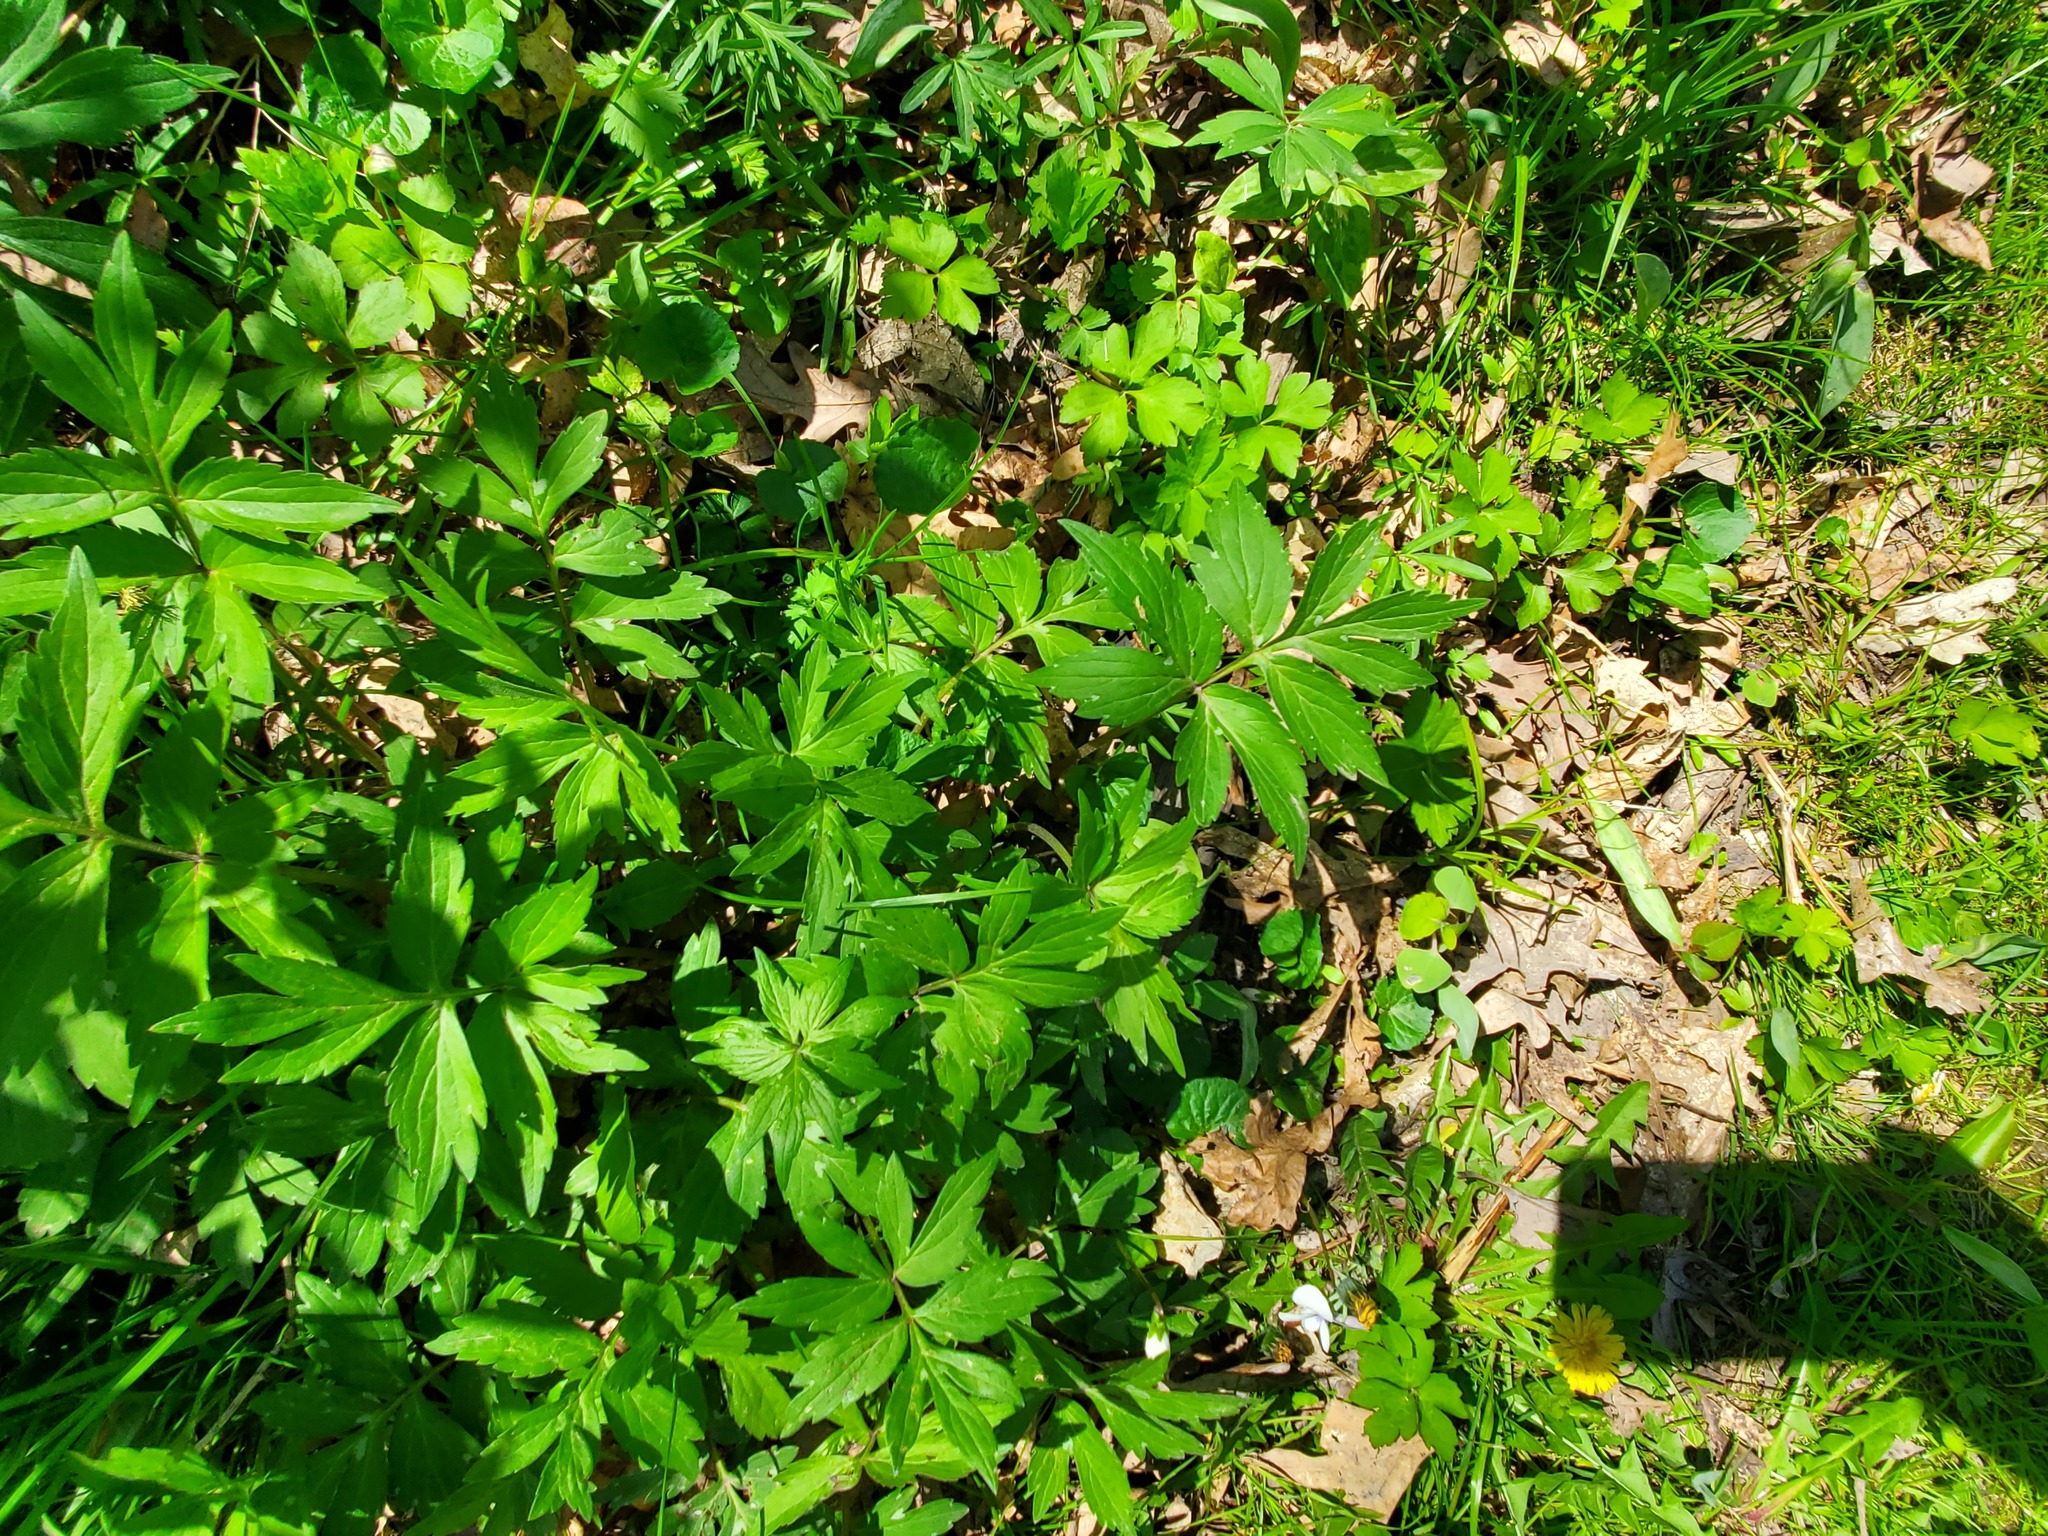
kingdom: Plantae
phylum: Tracheophyta
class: Magnoliopsida
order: Boraginales
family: Hydrophyllaceae
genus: Hydrophyllum
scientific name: Hydrophyllum virginianum
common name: Virginia waterleaf
